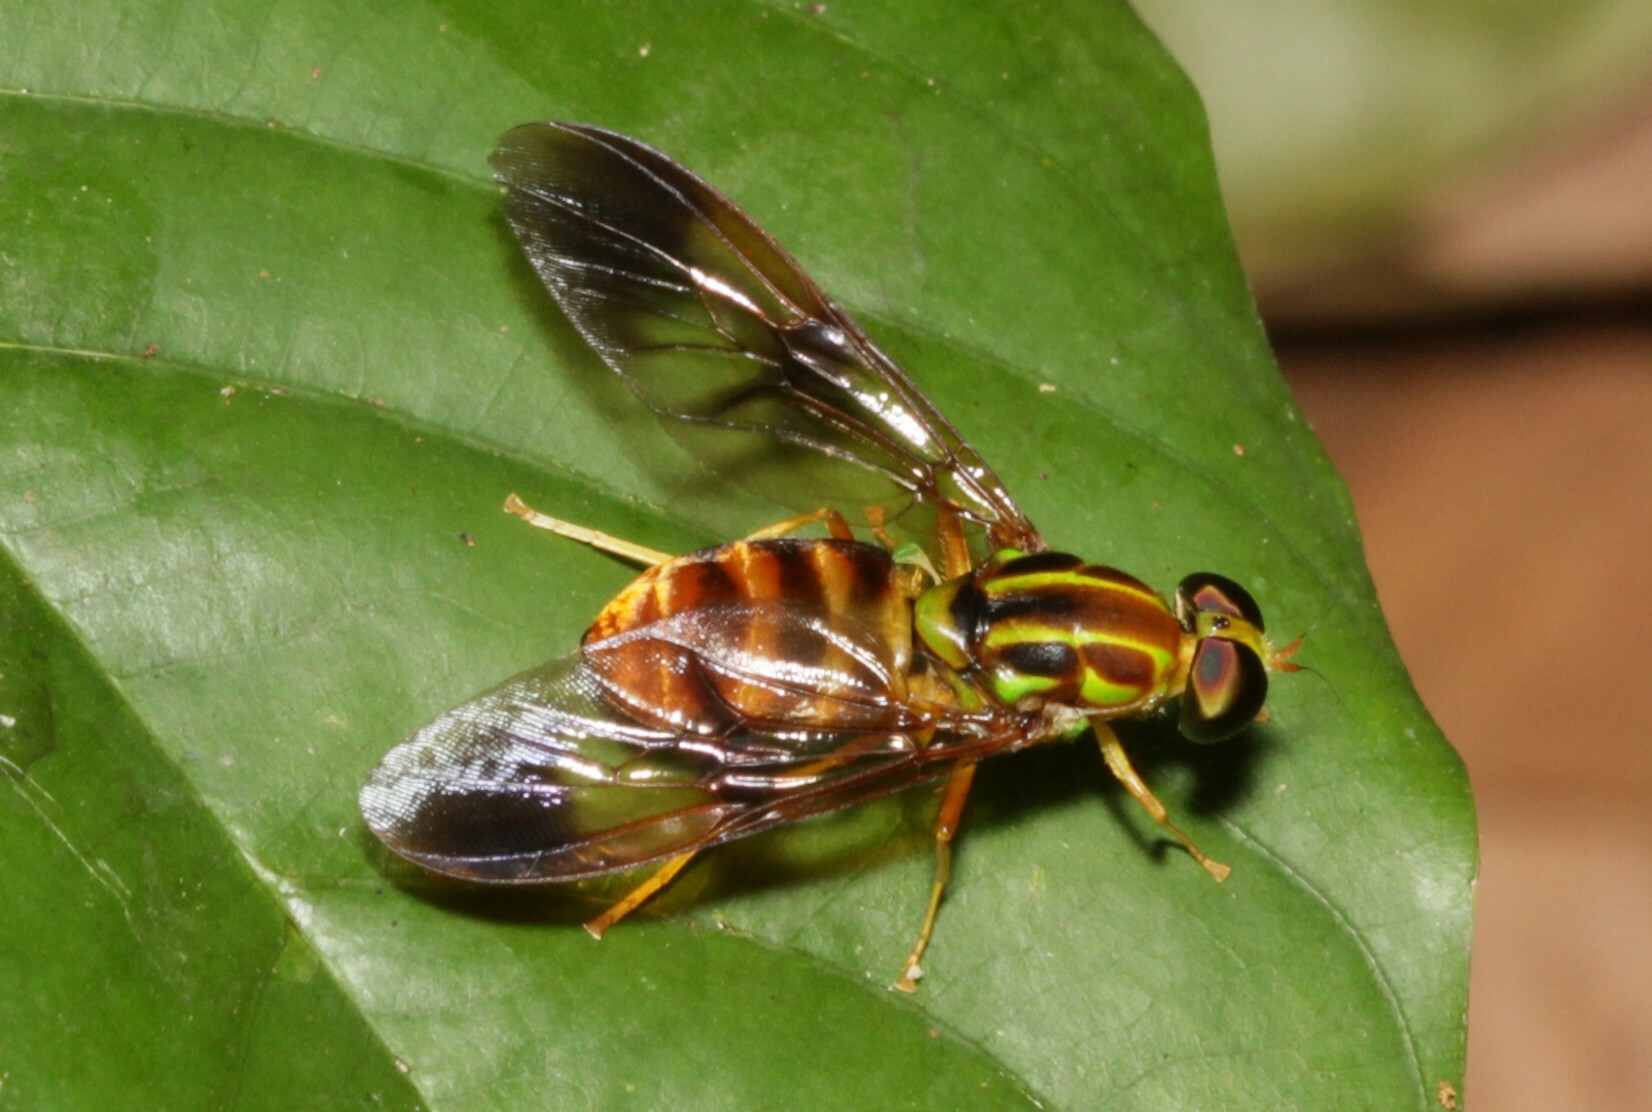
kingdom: Animalia
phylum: Arthropoda
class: Insecta
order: Diptera
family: Stratiomyidae
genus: Chrysochlorina
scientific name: Chrysochlorina currani
